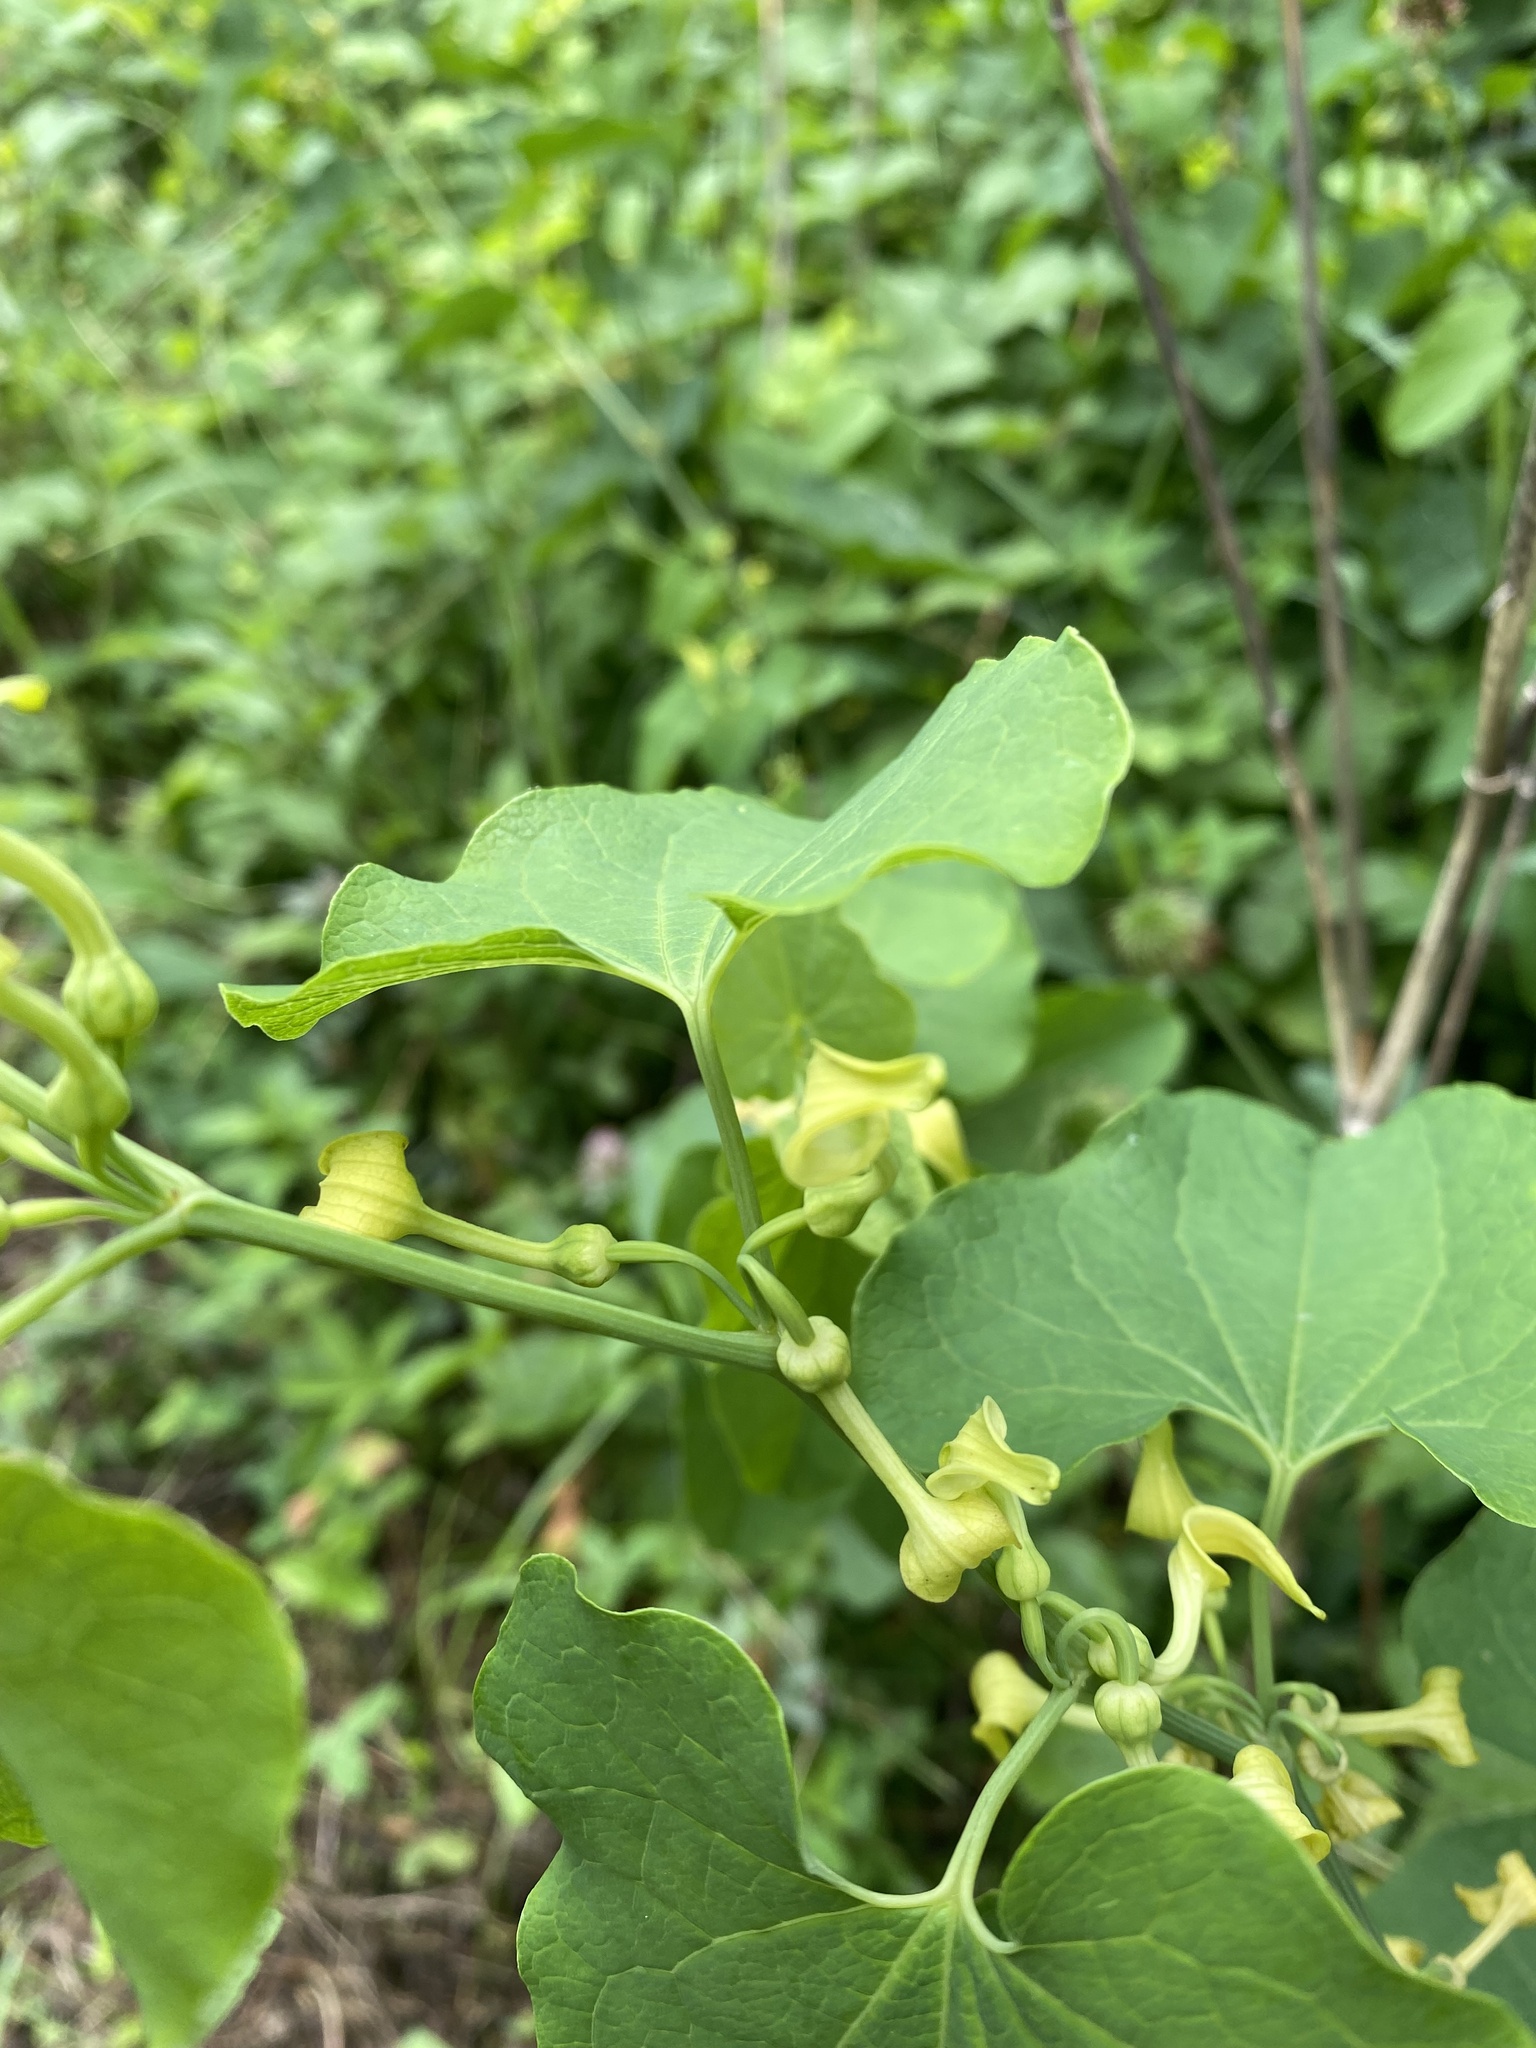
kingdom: Plantae
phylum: Tracheophyta
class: Magnoliopsida
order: Piperales
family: Aristolochiaceae
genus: Aristolochia
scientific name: Aristolochia clematitis
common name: Birthwort
